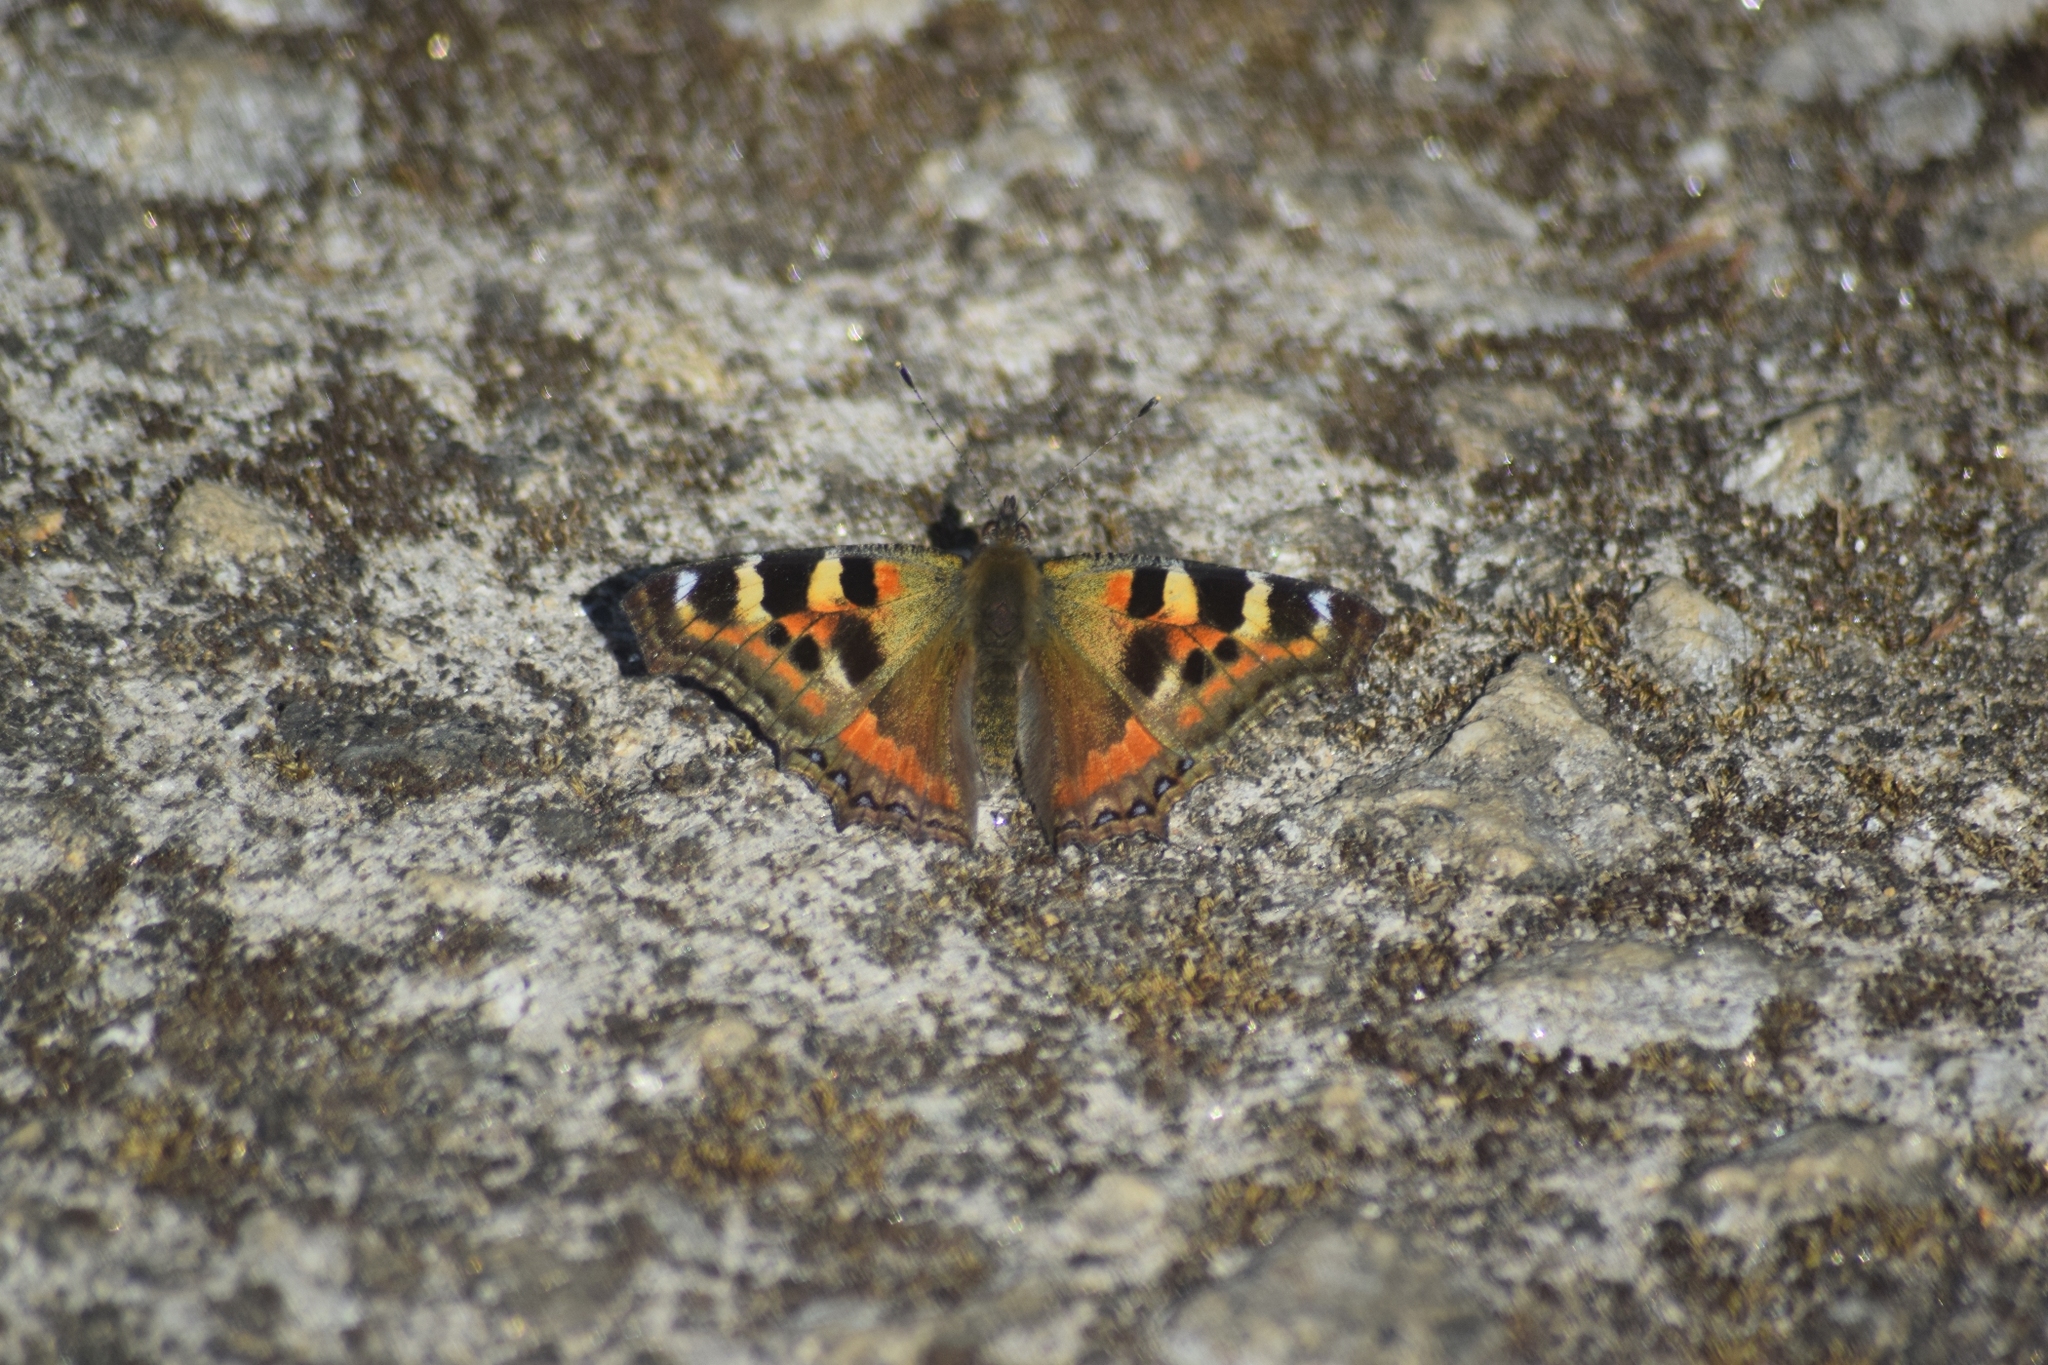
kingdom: Animalia
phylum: Arthropoda
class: Insecta
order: Lepidoptera
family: Nymphalidae
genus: Aglais
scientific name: Aglais caschmirensis
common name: Indian tortoiseshell
